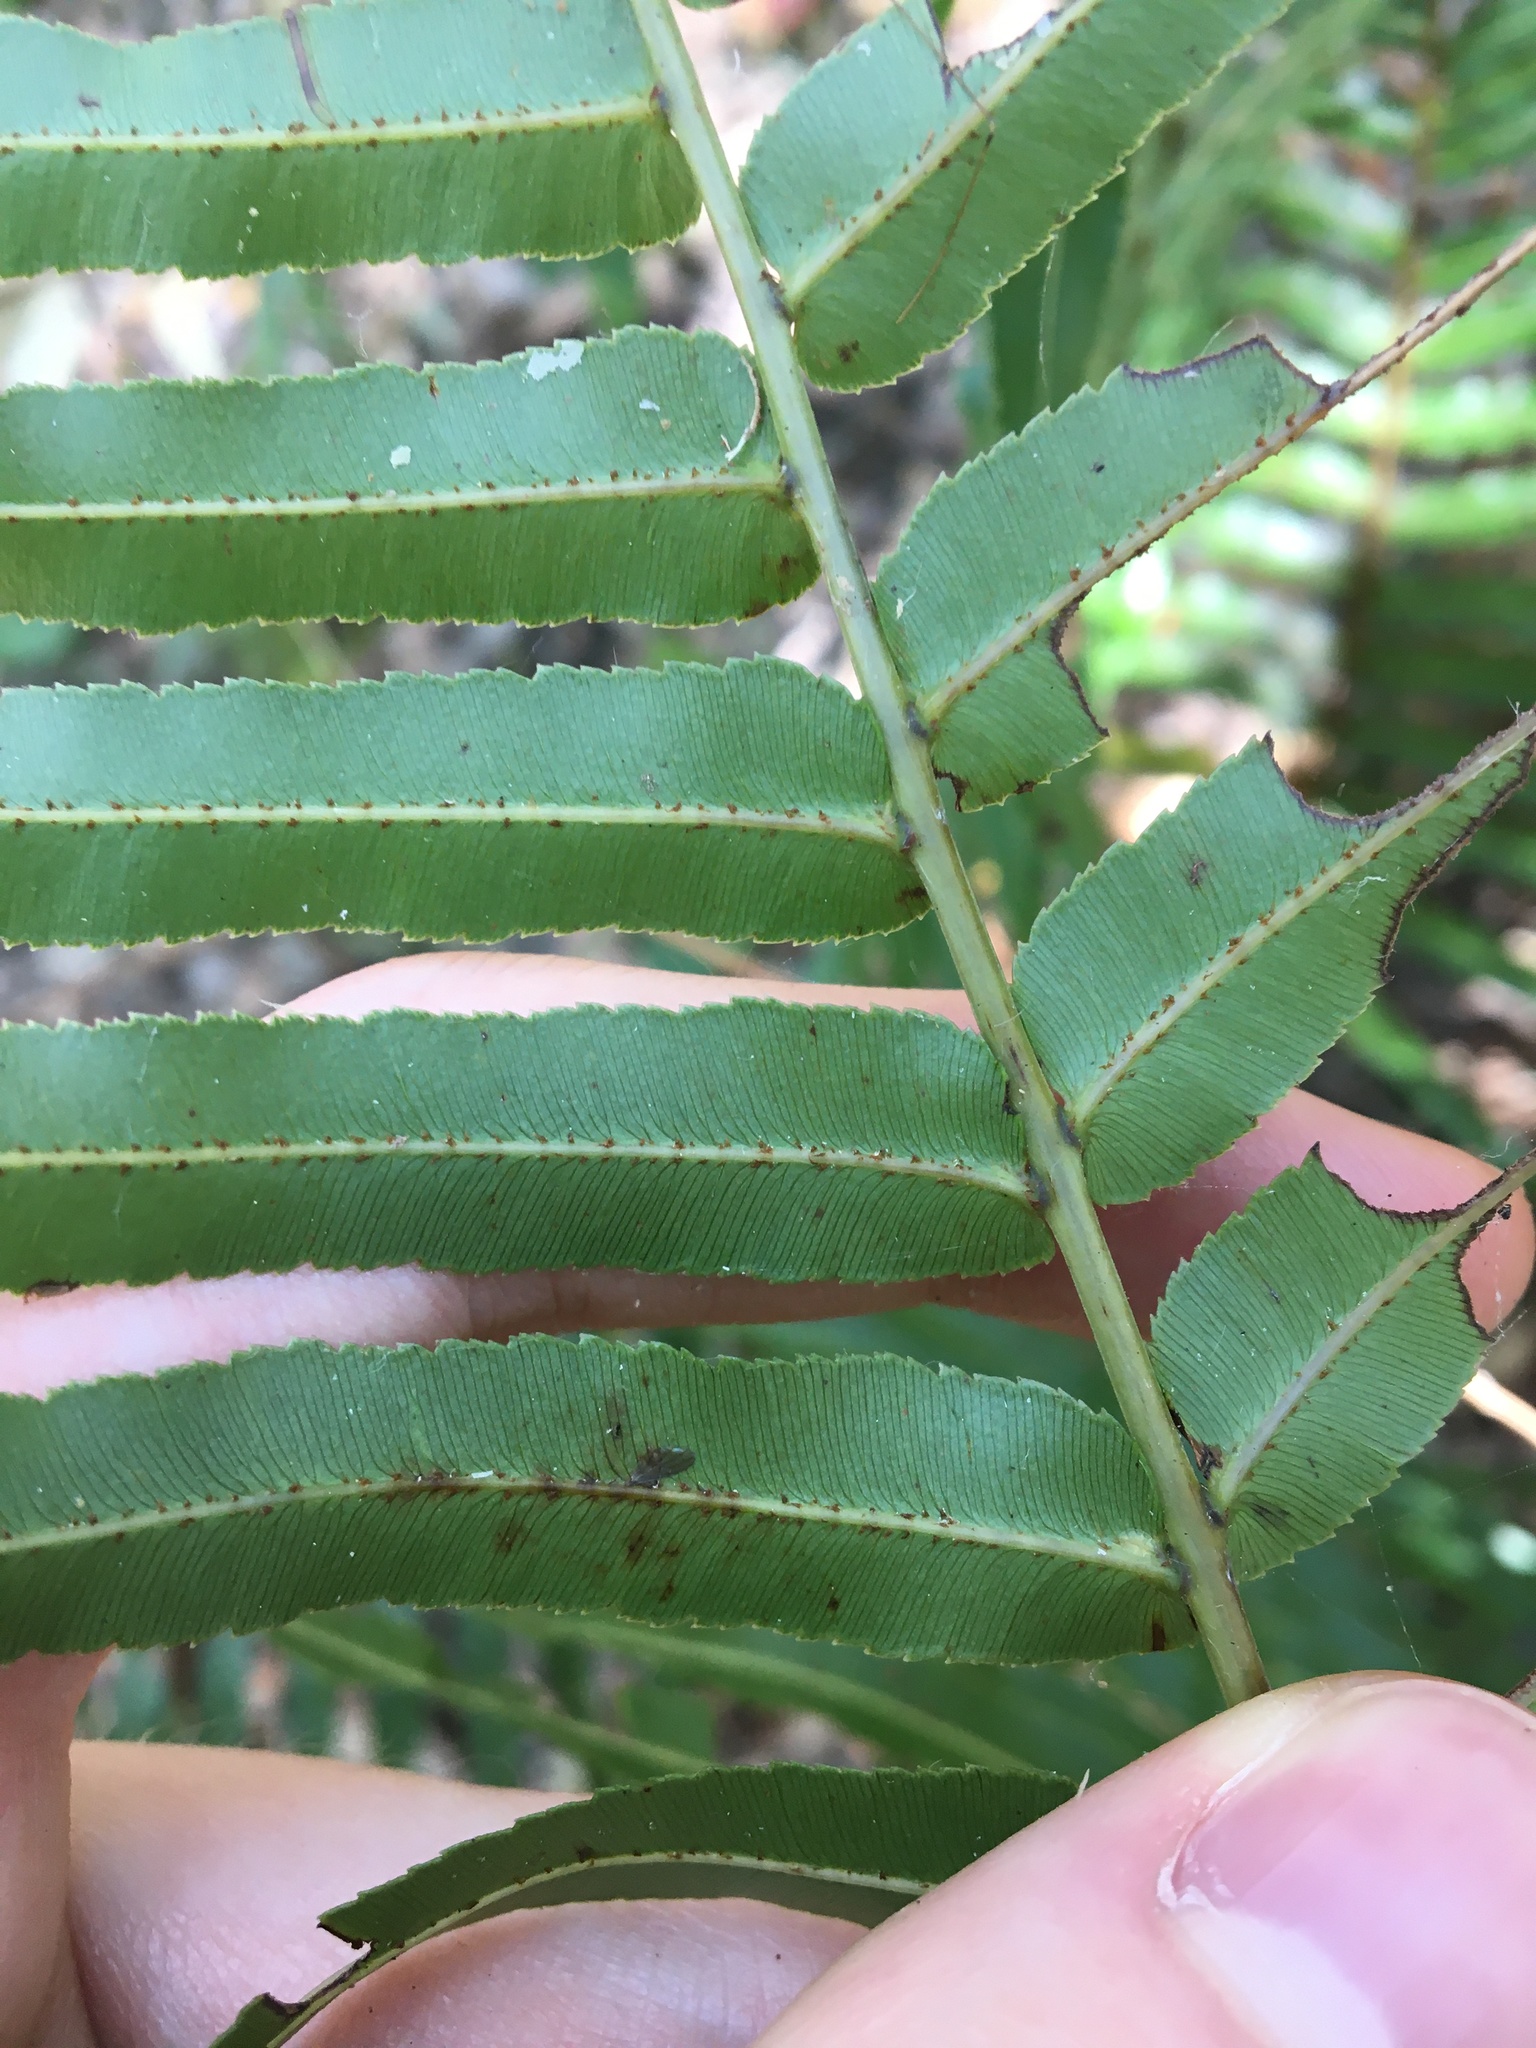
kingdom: Plantae
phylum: Tracheophyta
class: Polypodiopsida
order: Polypodiales
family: Blechnaceae
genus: Telmatoblechnum
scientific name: Telmatoblechnum indicum
